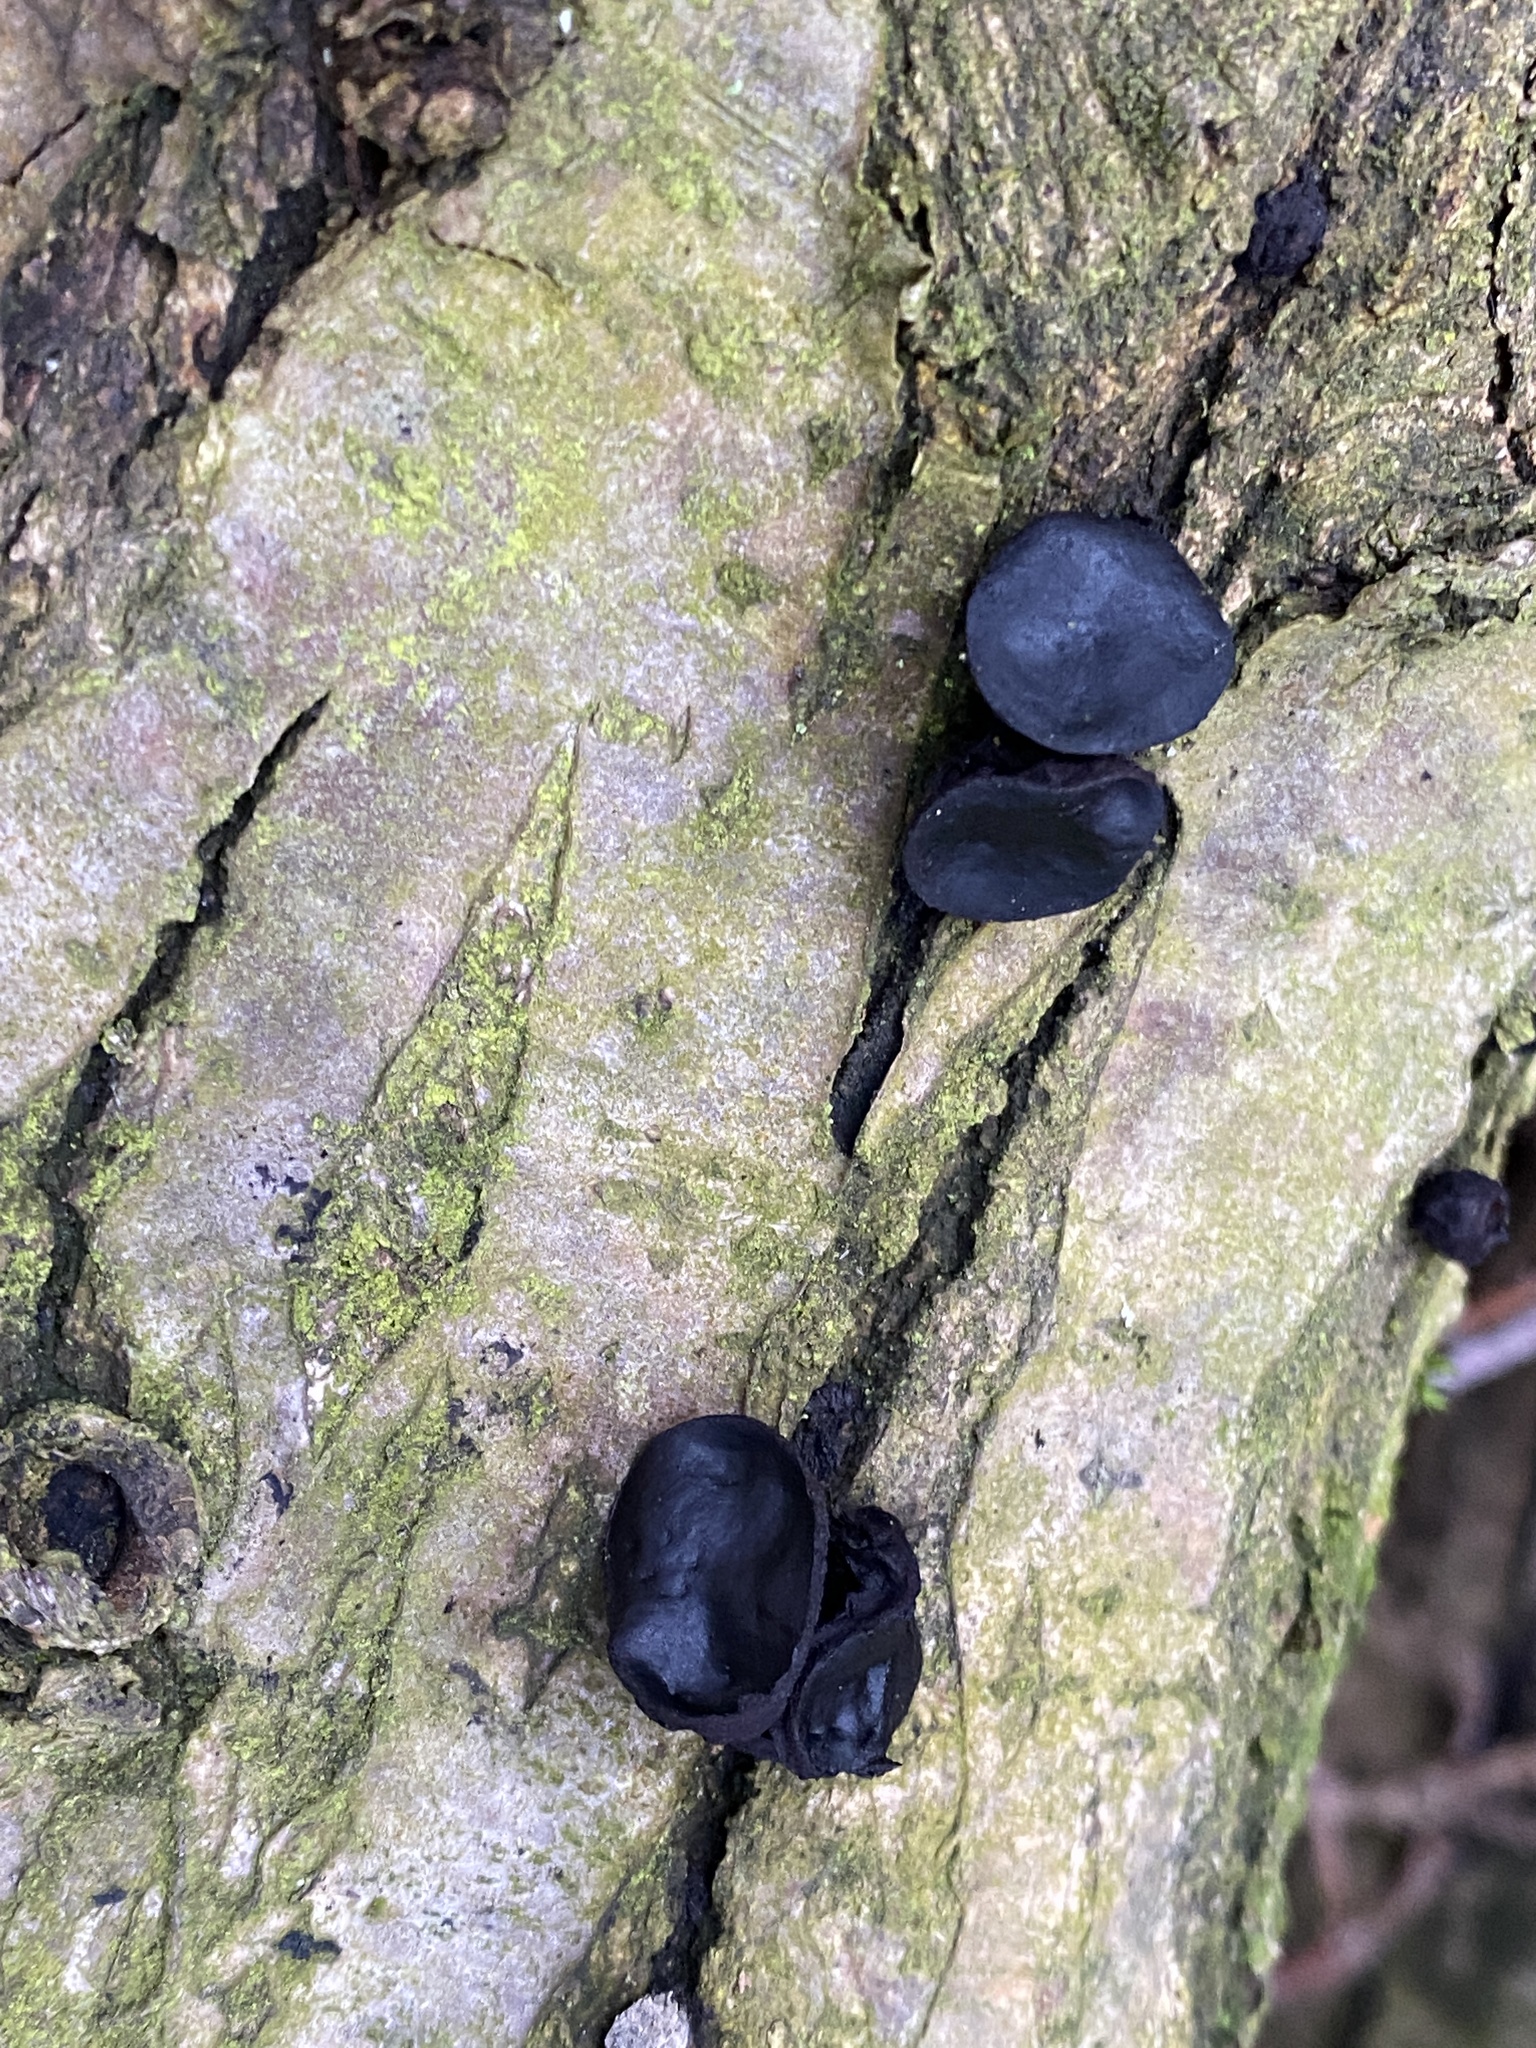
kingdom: Fungi
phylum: Ascomycota
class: Leotiomycetes
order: Phacidiales
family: Phacidiaceae
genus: Bulgaria
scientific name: Bulgaria inquinans
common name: Black bulgar
